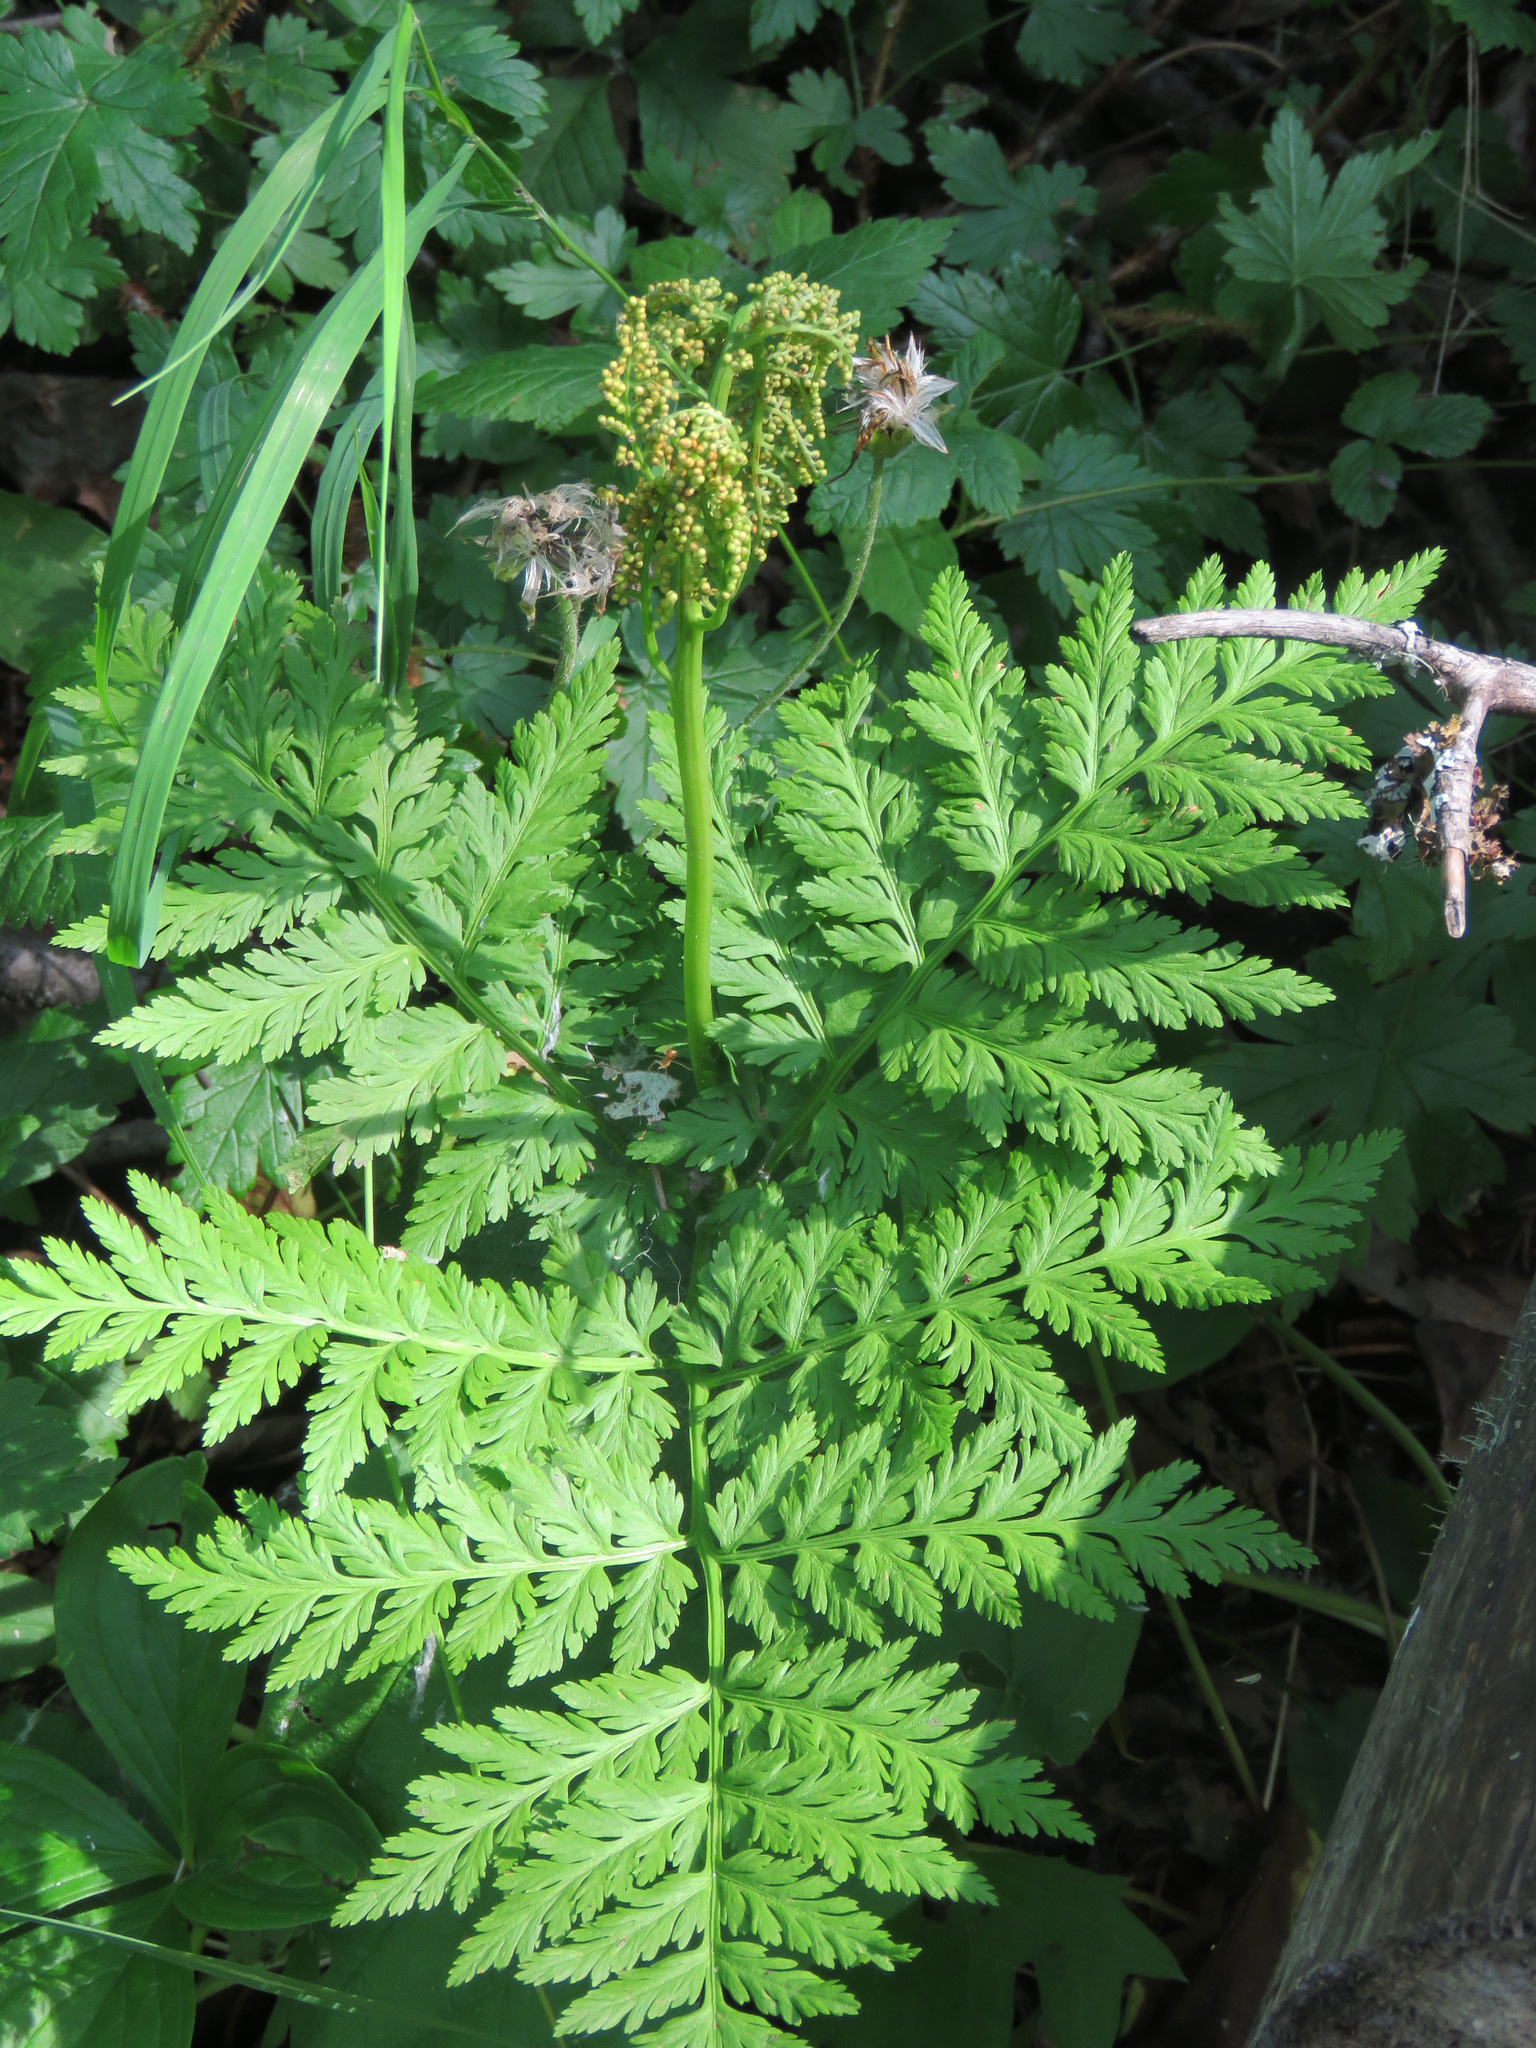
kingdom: Plantae
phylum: Tracheophyta
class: Polypodiopsida
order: Ophioglossales
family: Ophioglossaceae
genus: Botrypus
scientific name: Botrypus virginianus
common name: Common grapefern
